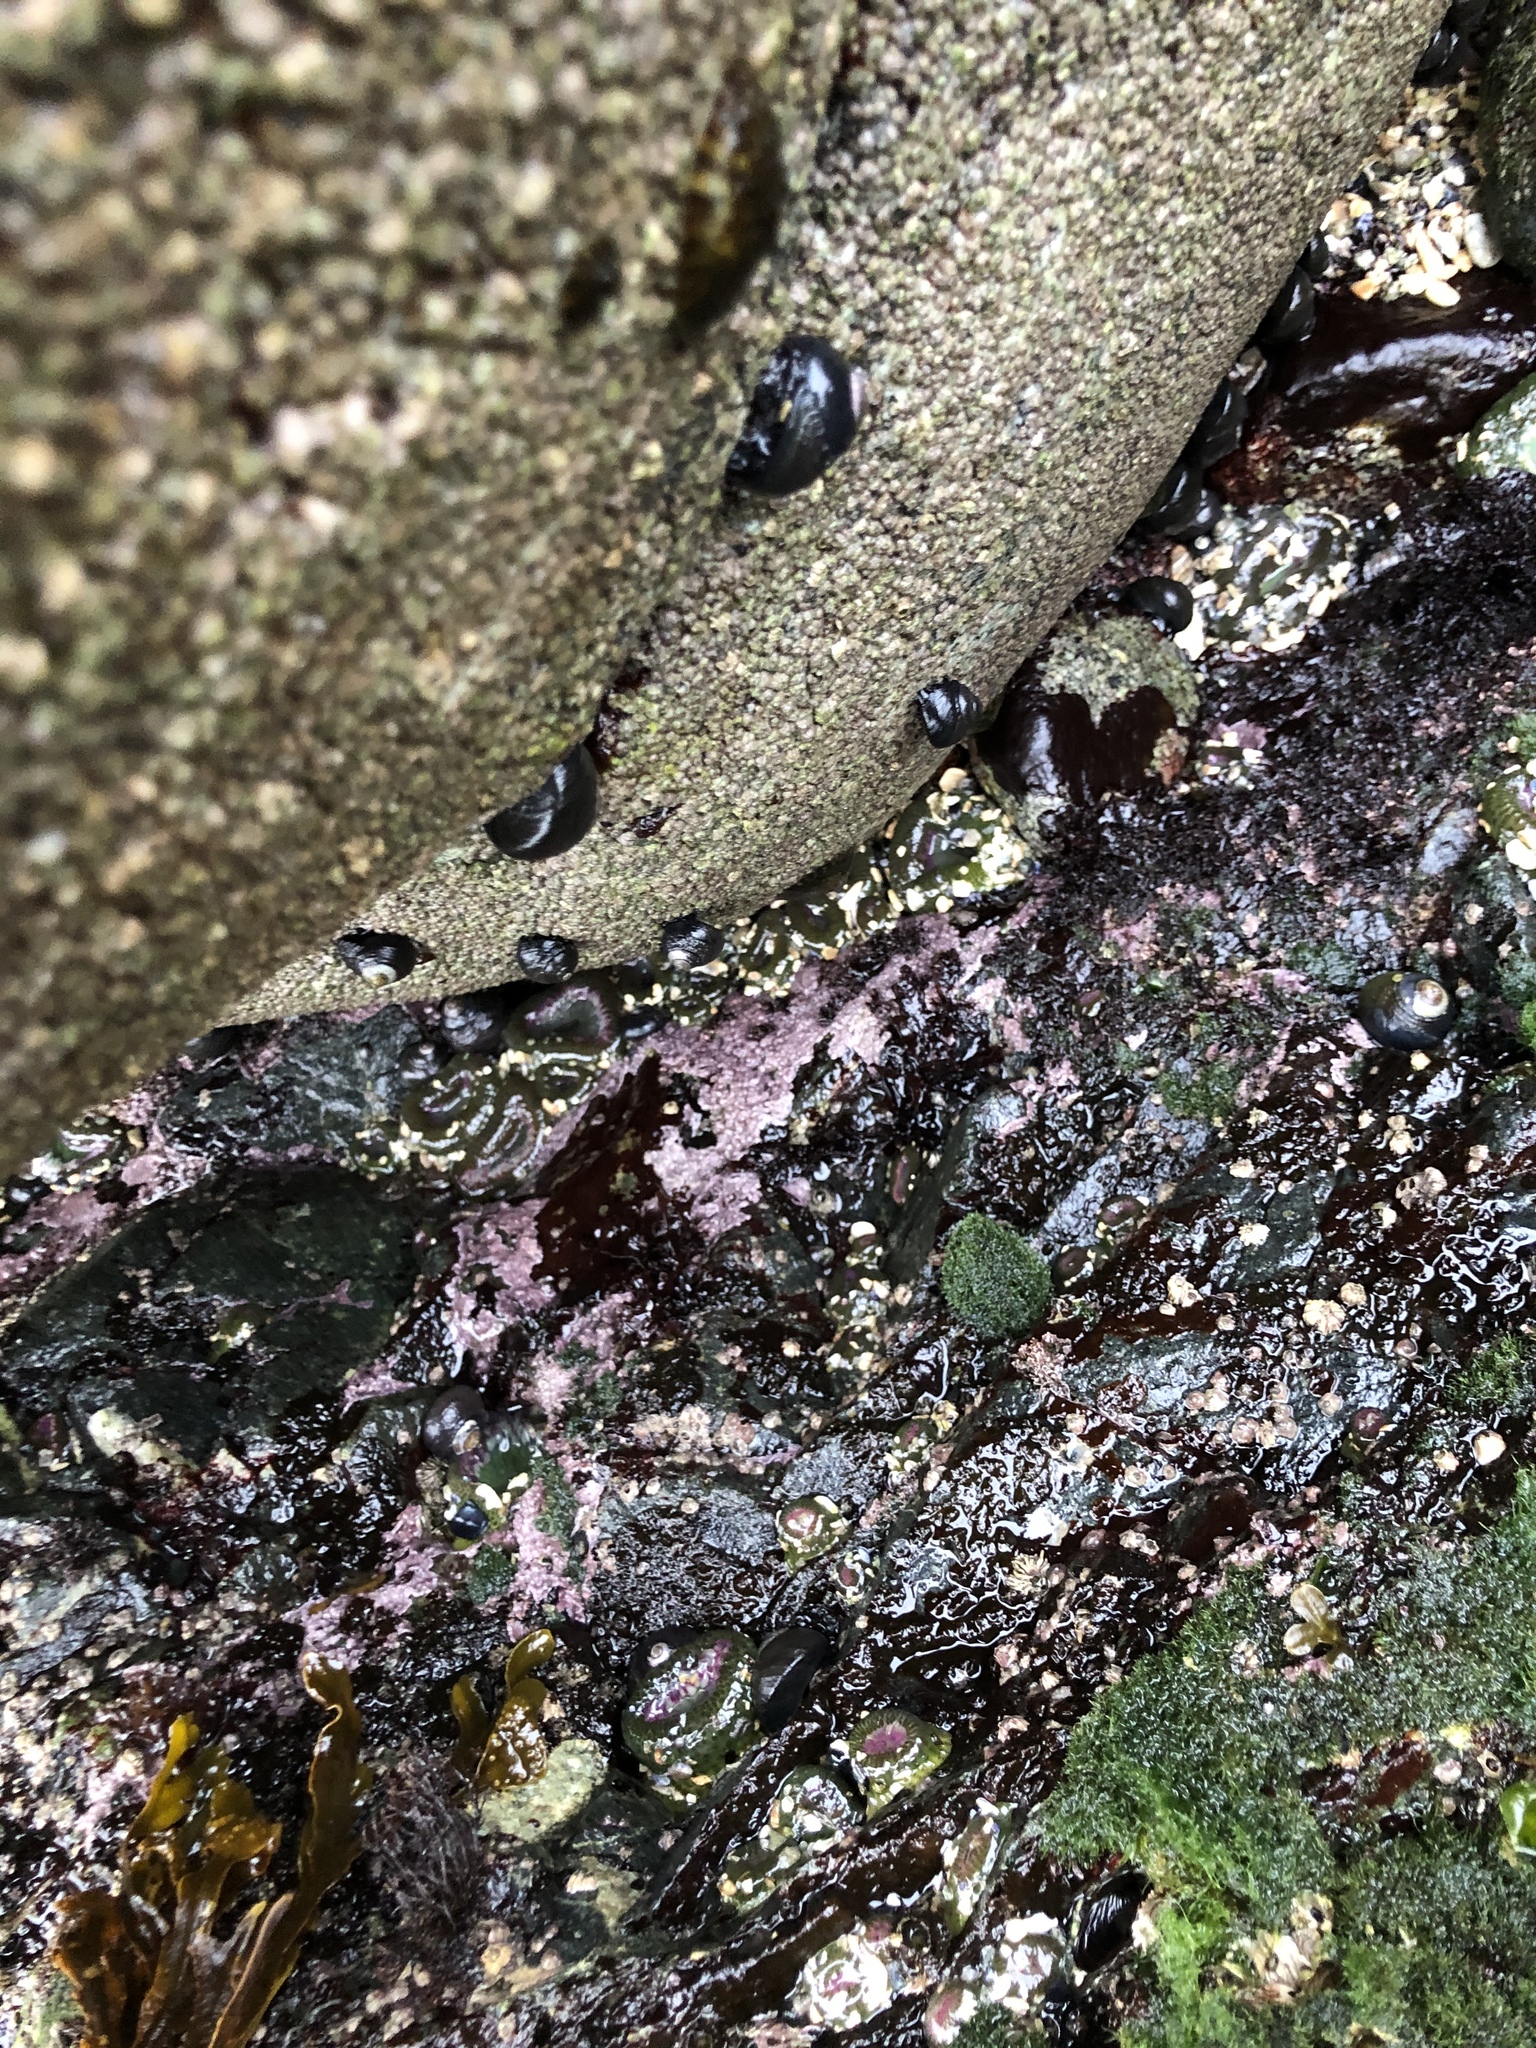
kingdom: Plantae
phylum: Rhodophyta
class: Florideophyceae
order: Corallinales
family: Corallinaceae
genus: Chamberlainium
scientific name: Chamberlainium tumidum
